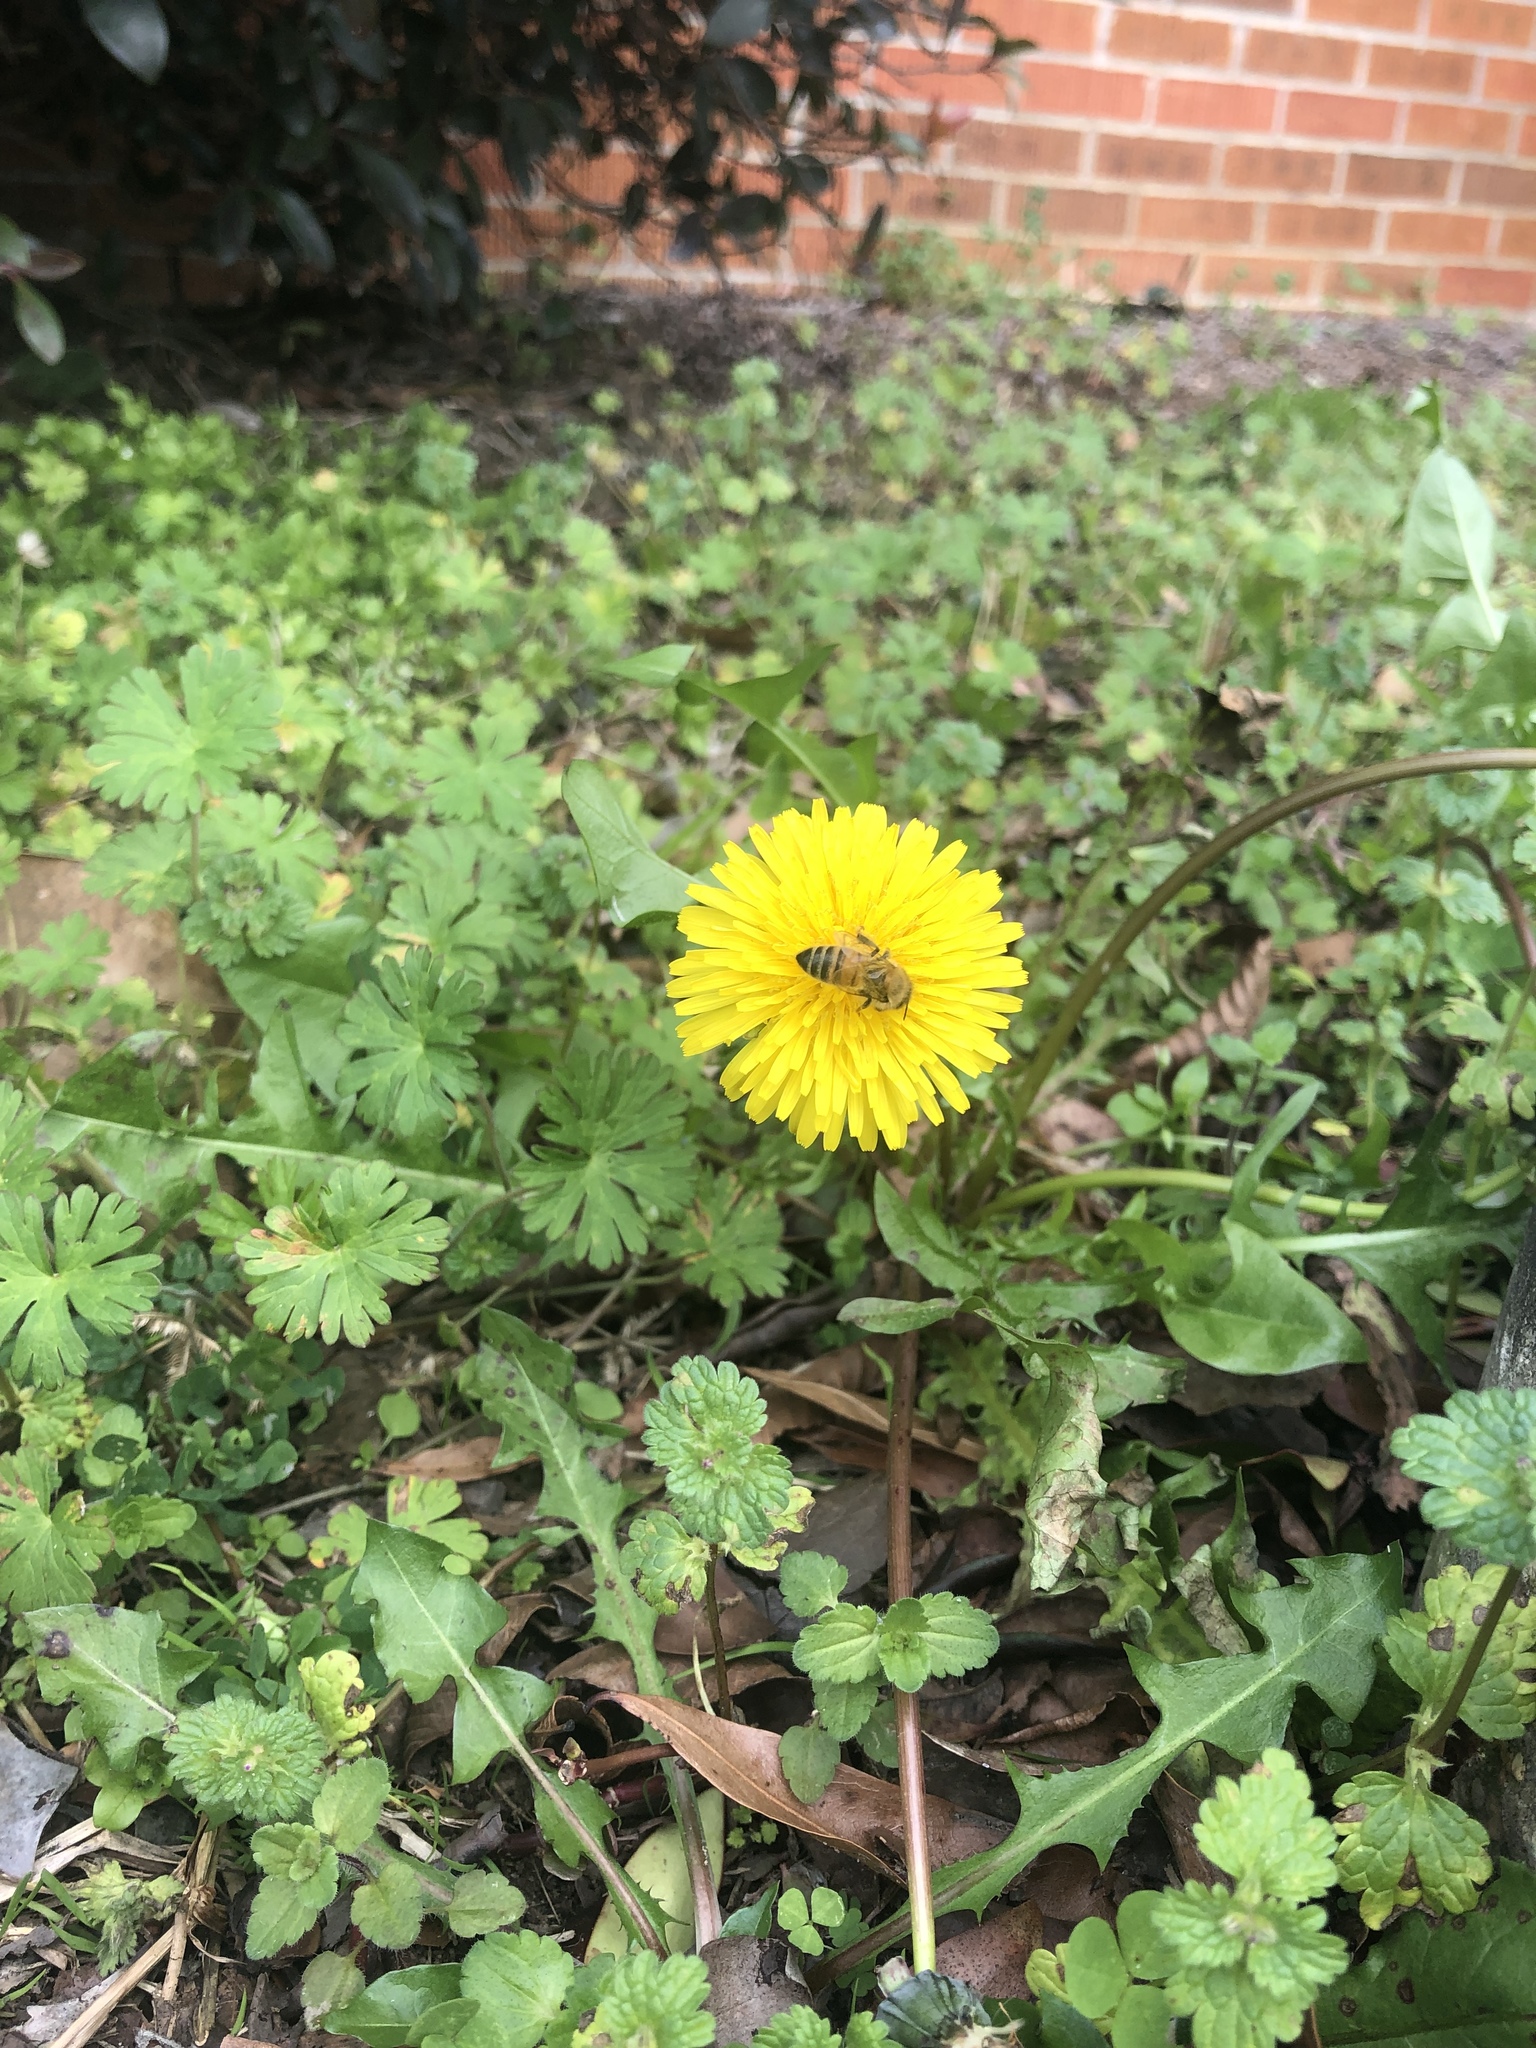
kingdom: Plantae
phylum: Tracheophyta
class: Magnoliopsida
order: Asterales
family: Asteraceae
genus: Taraxacum
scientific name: Taraxacum officinale
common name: Common dandelion
